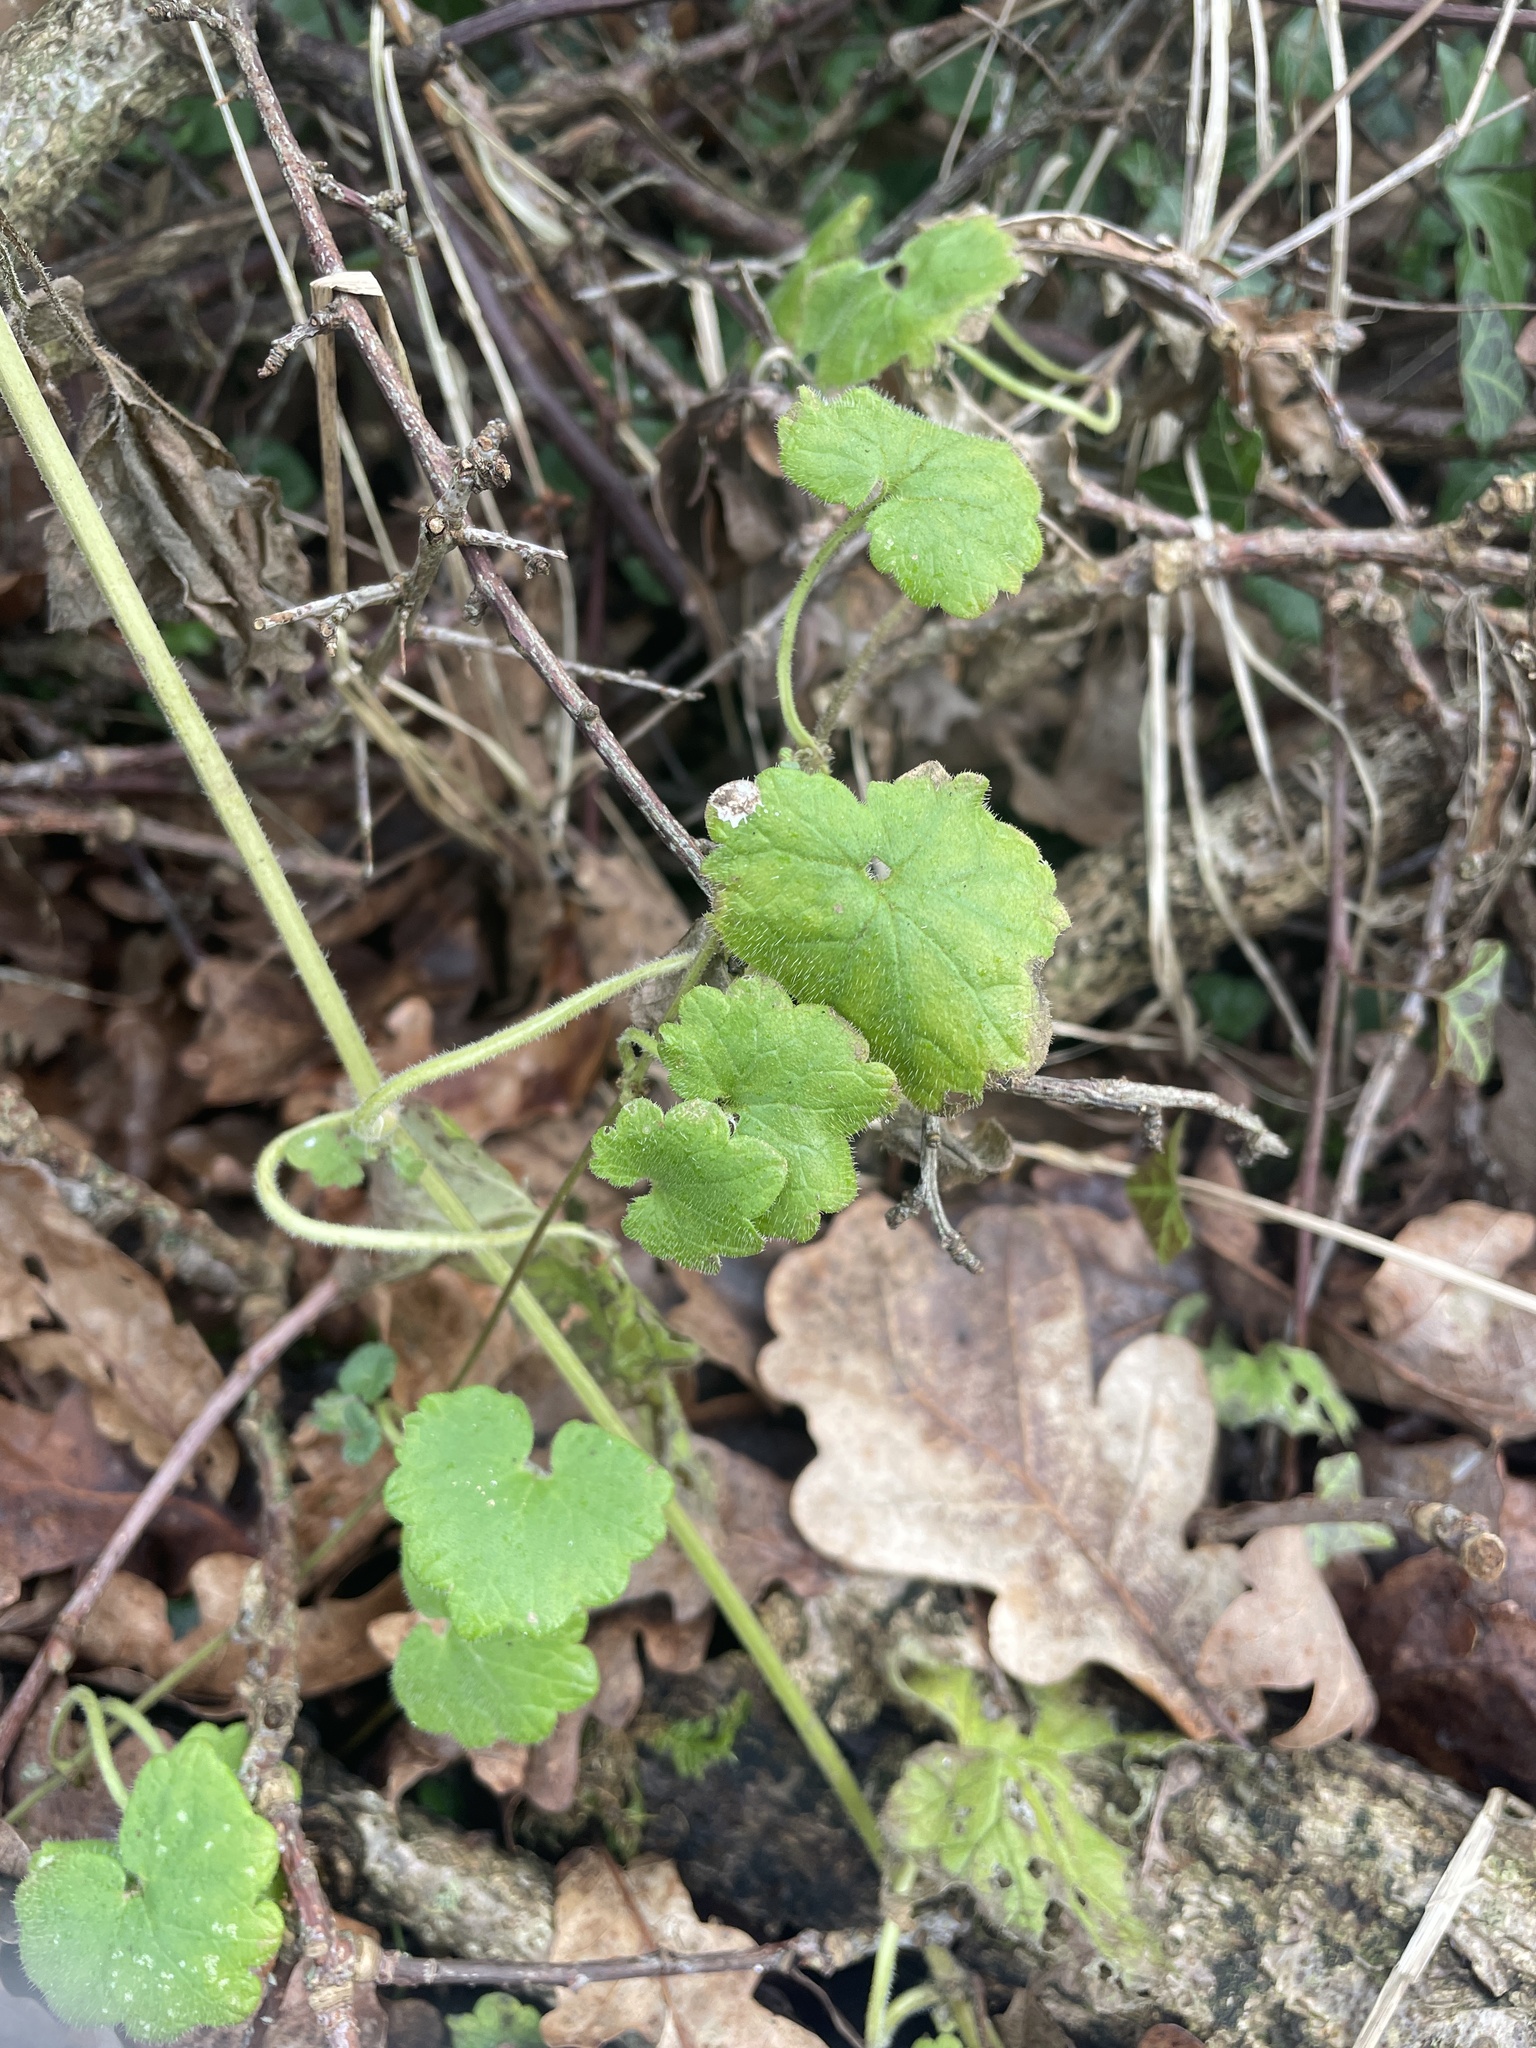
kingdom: Plantae
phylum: Tracheophyta
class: Magnoliopsida
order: Lamiales
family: Lamiaceae
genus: Glechoma
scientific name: Glechoma hederacea
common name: Ground ivy
